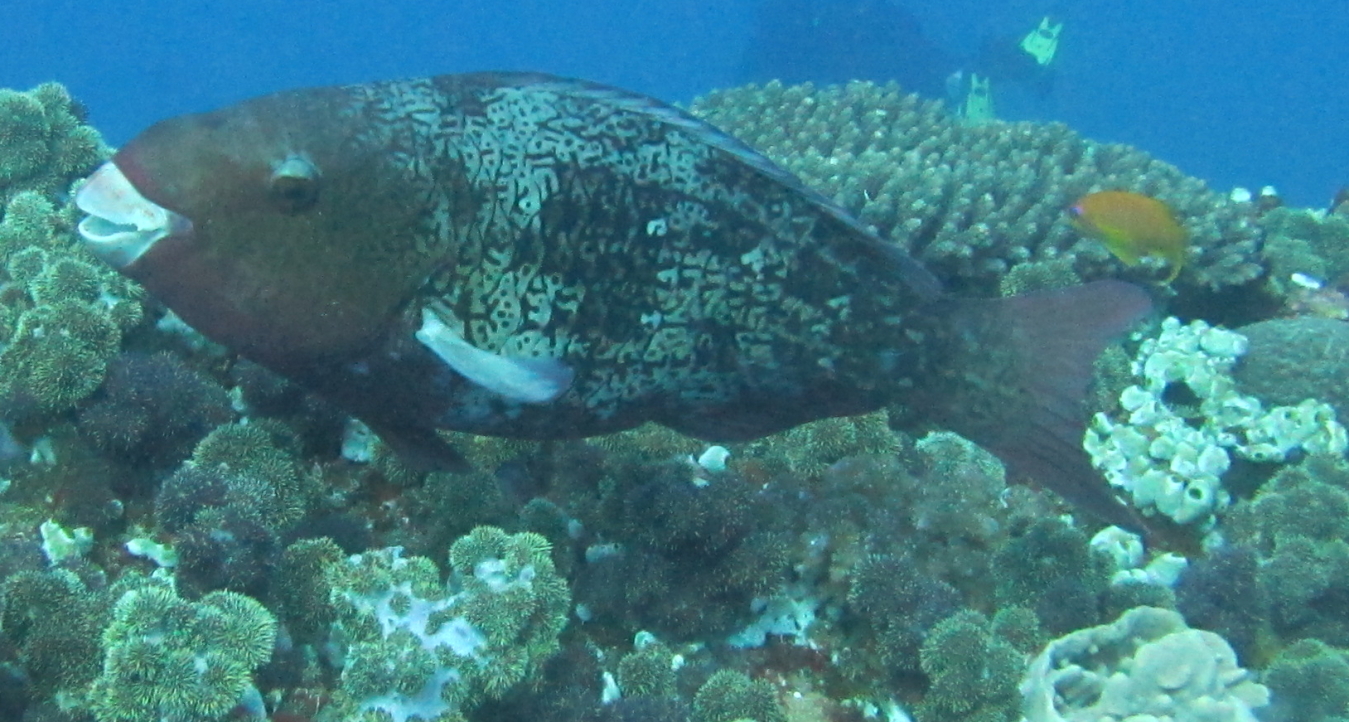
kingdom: Animalia
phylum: Chordata
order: Perciformes
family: Scaridae
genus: Scarus
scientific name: Scarus rubroviolaceus
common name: Ember parrotfish
